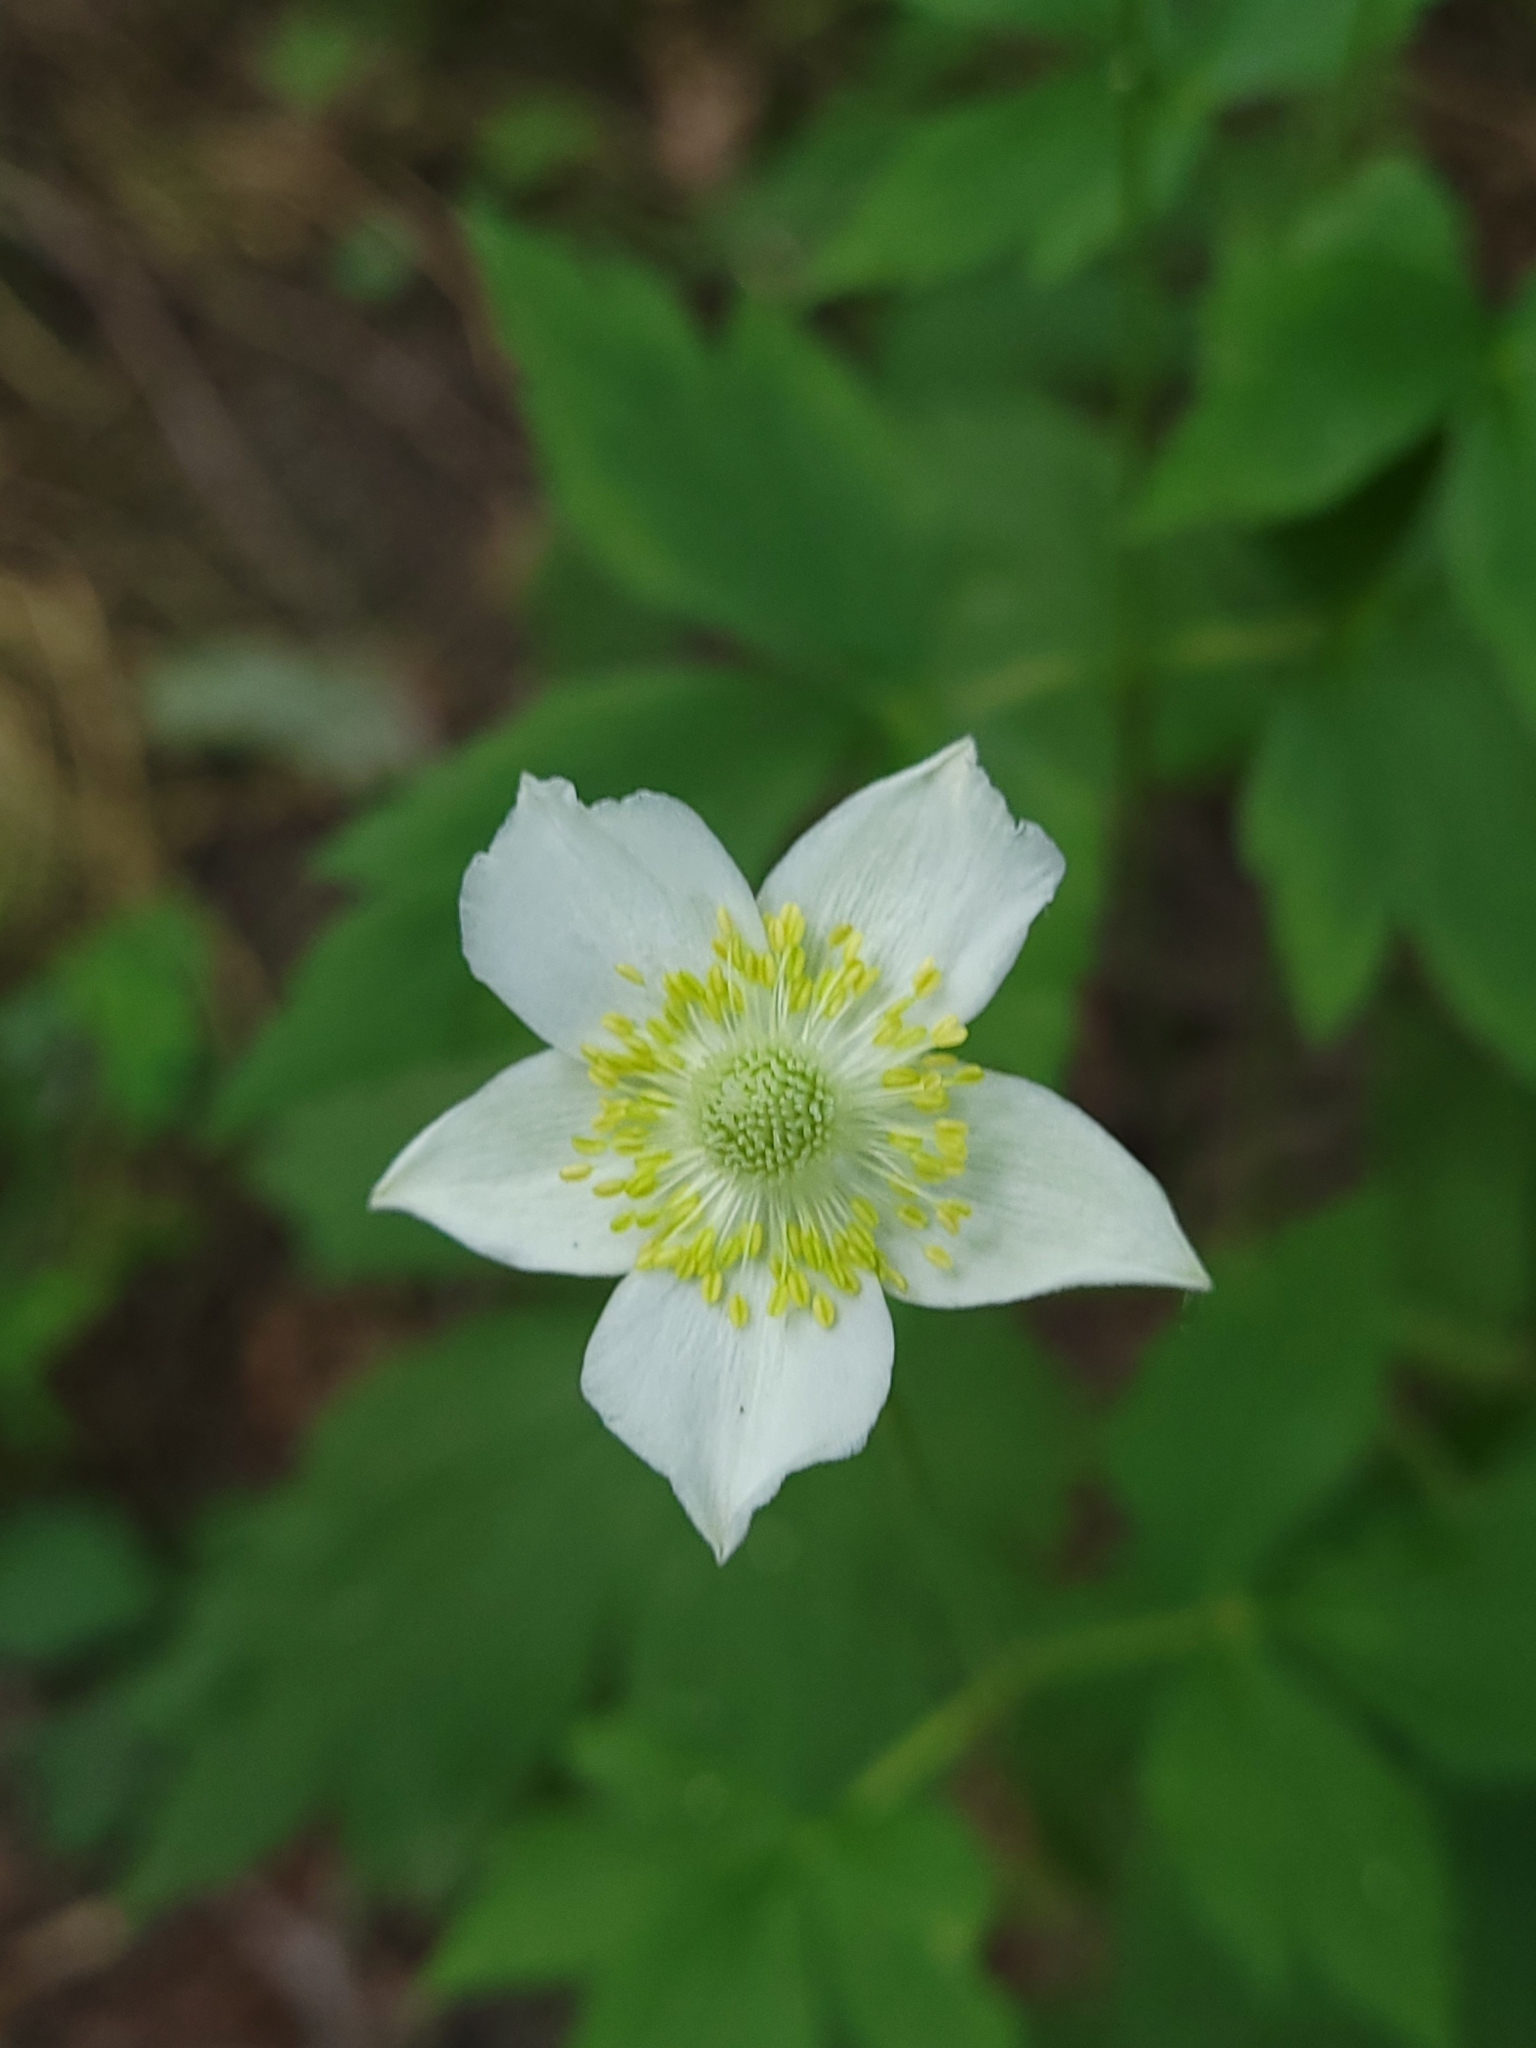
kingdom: Plantae
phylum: Tracheophyta
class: Magnoliopsida
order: Ranunculales
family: Ranunculaceae
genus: Anemone
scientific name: Anemone virginiana
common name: Tall anemone
